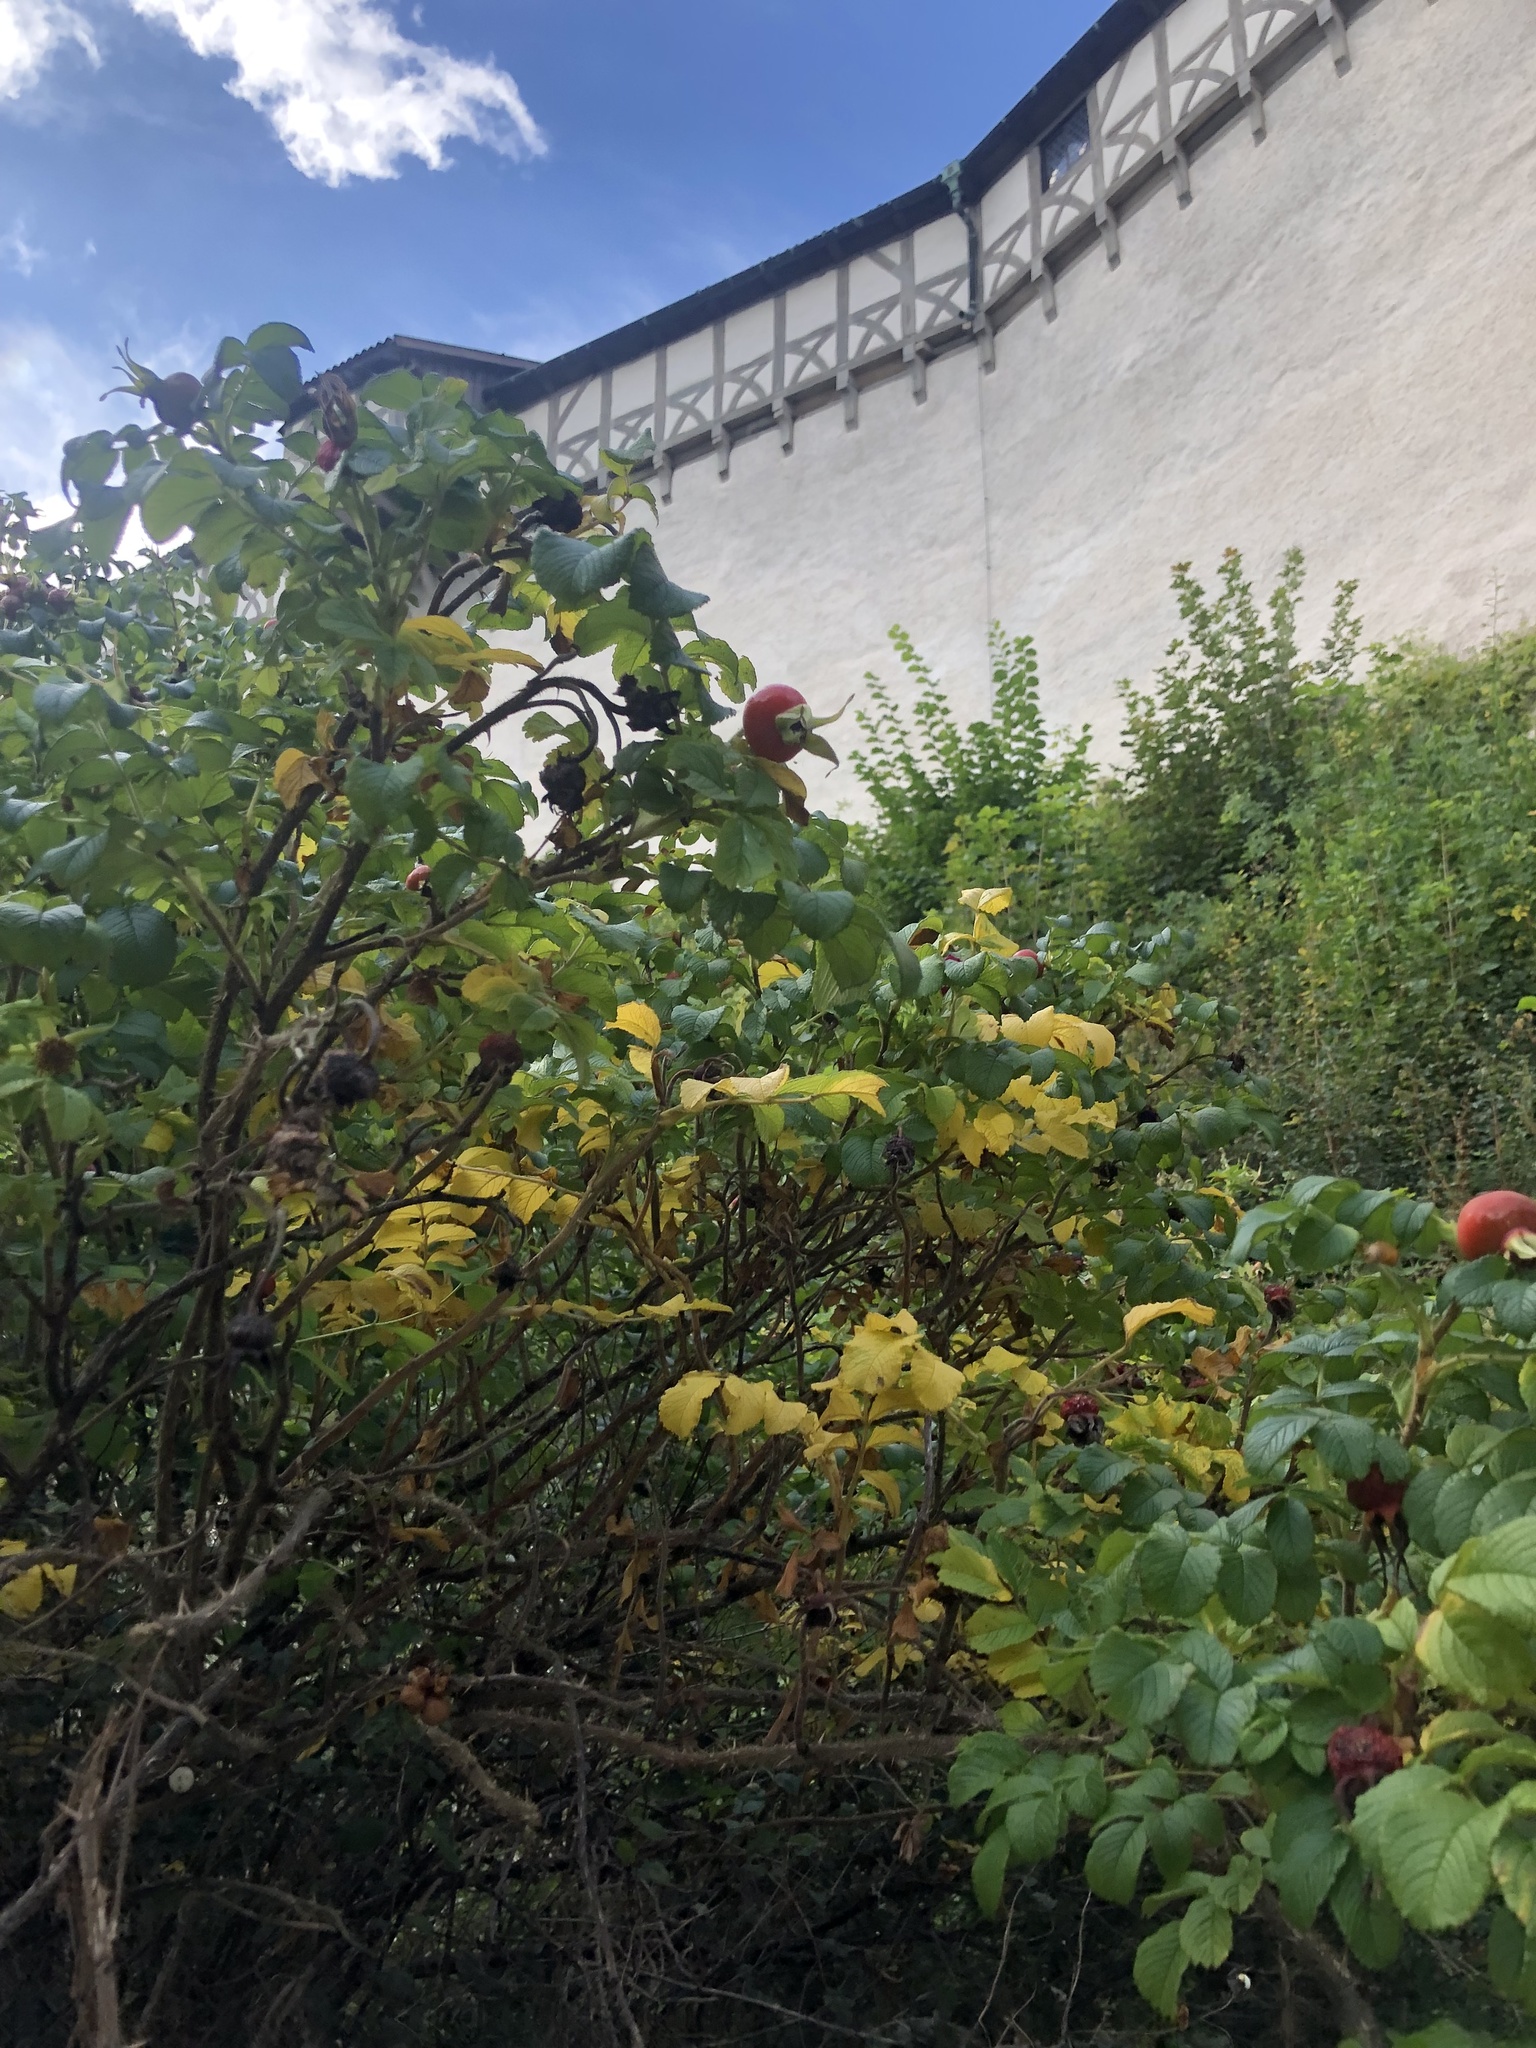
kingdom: Plantae
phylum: Tracheophyta
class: Magnoliopsida
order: Rosales
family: Rosaceae
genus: Rosa
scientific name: Rosa rugosa
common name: Japanese rose
